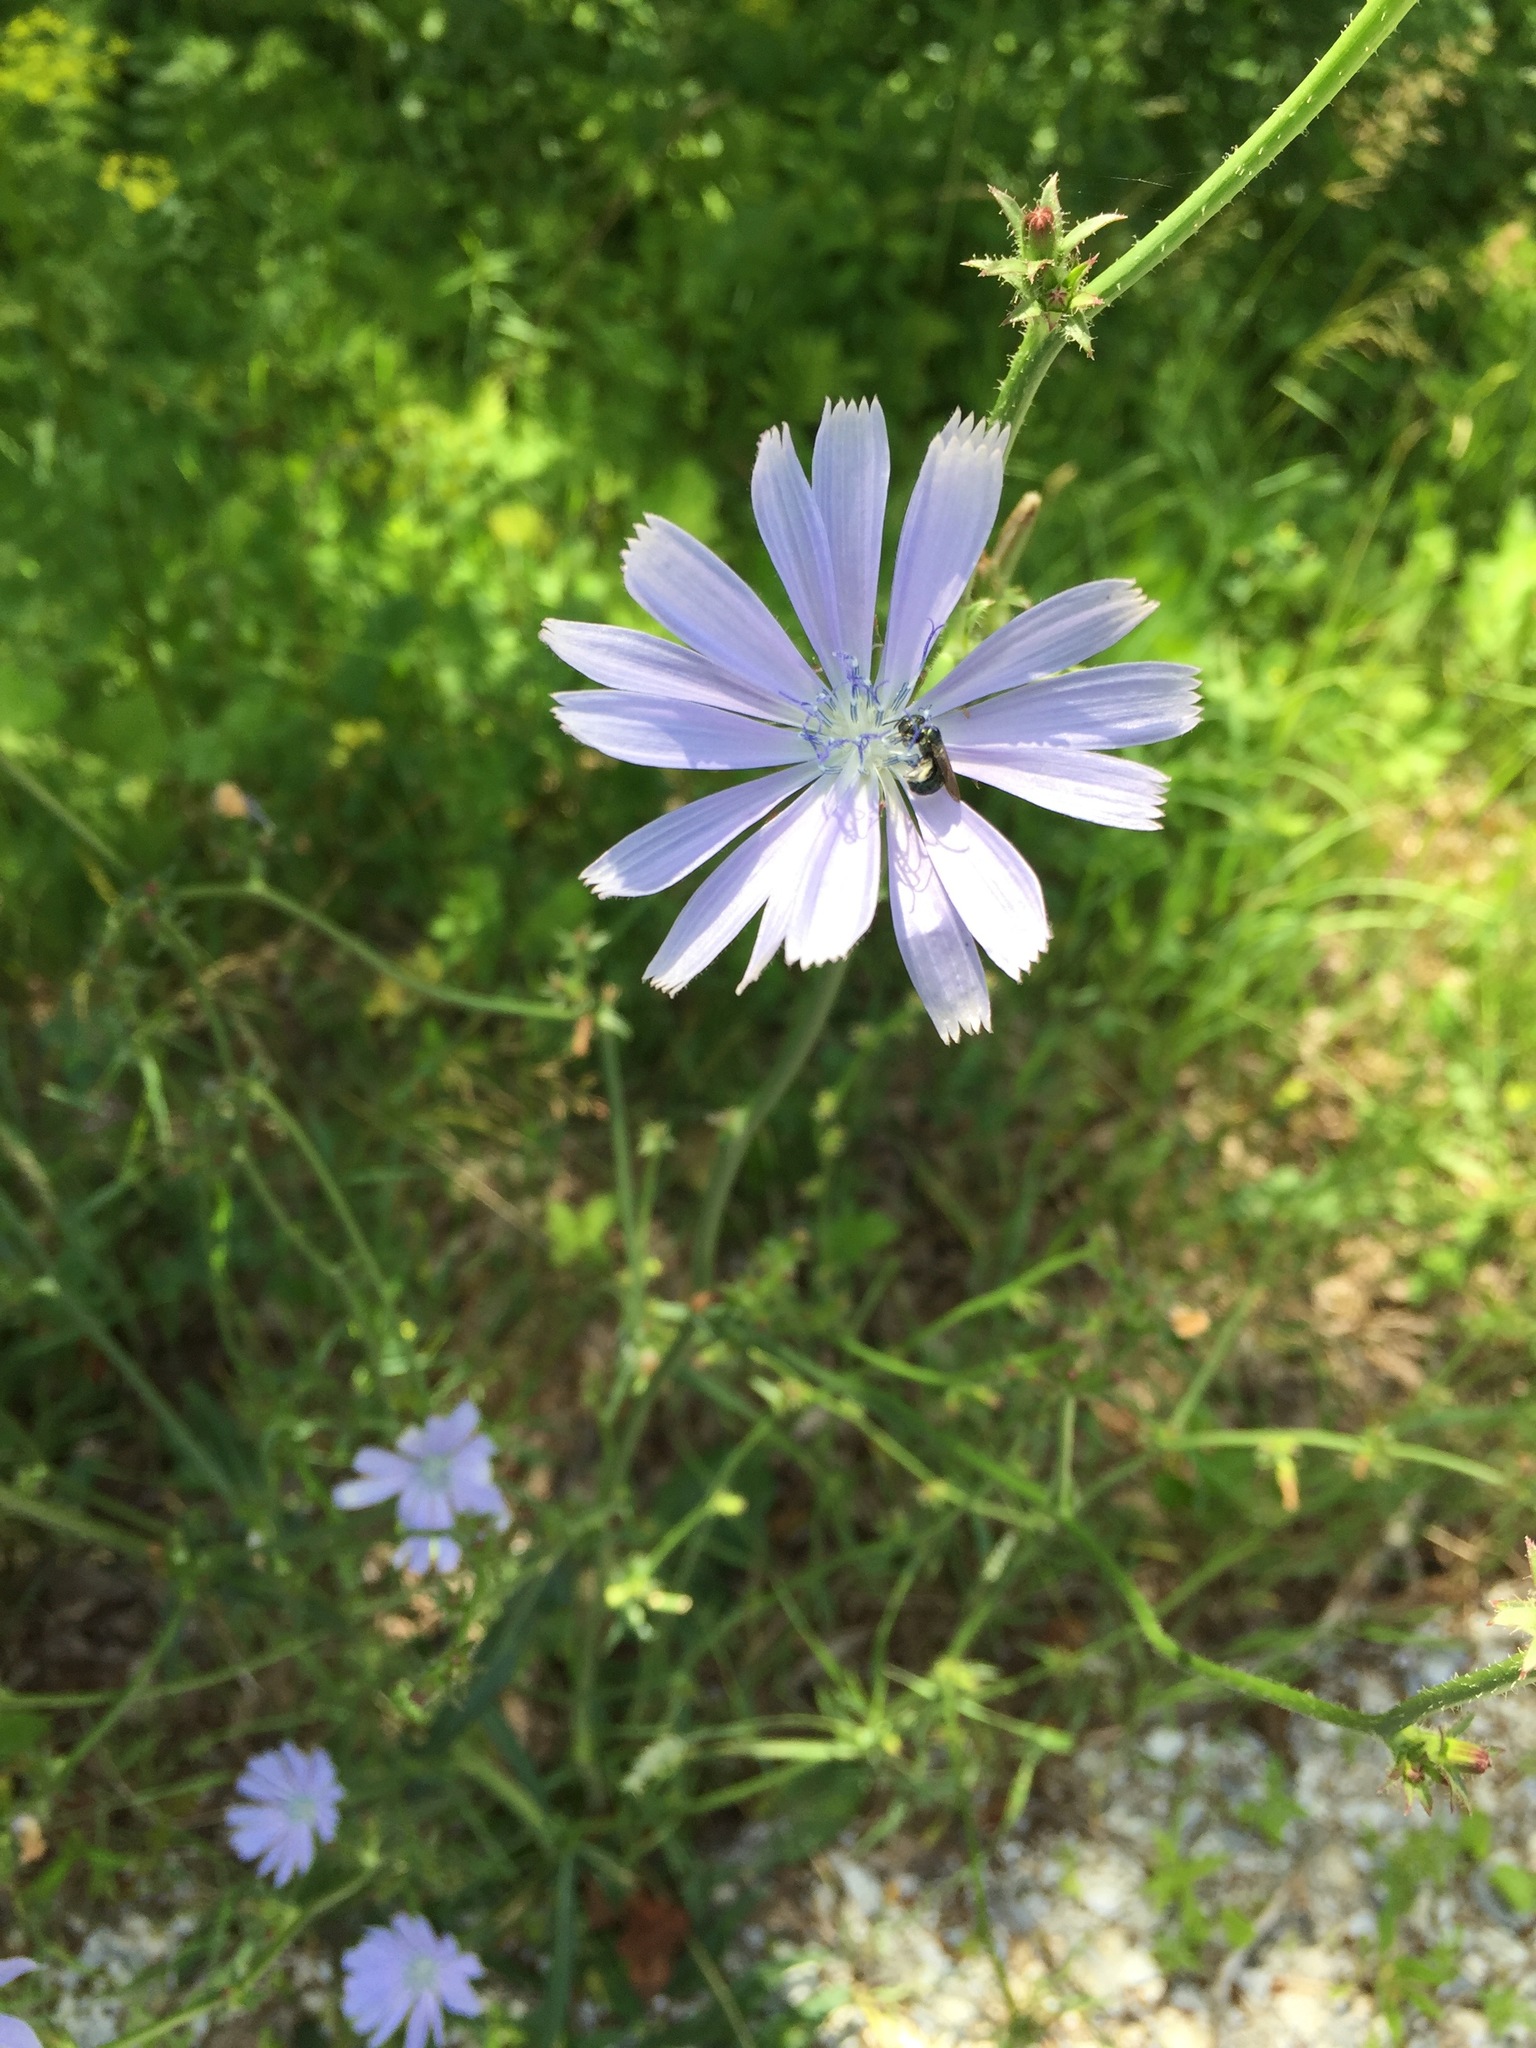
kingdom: Plantae
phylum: Tracheophyta
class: Magnoliopsida
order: Asterales
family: Asteraceae
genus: Cichorium
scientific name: Cichorium intybus
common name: Chicory
